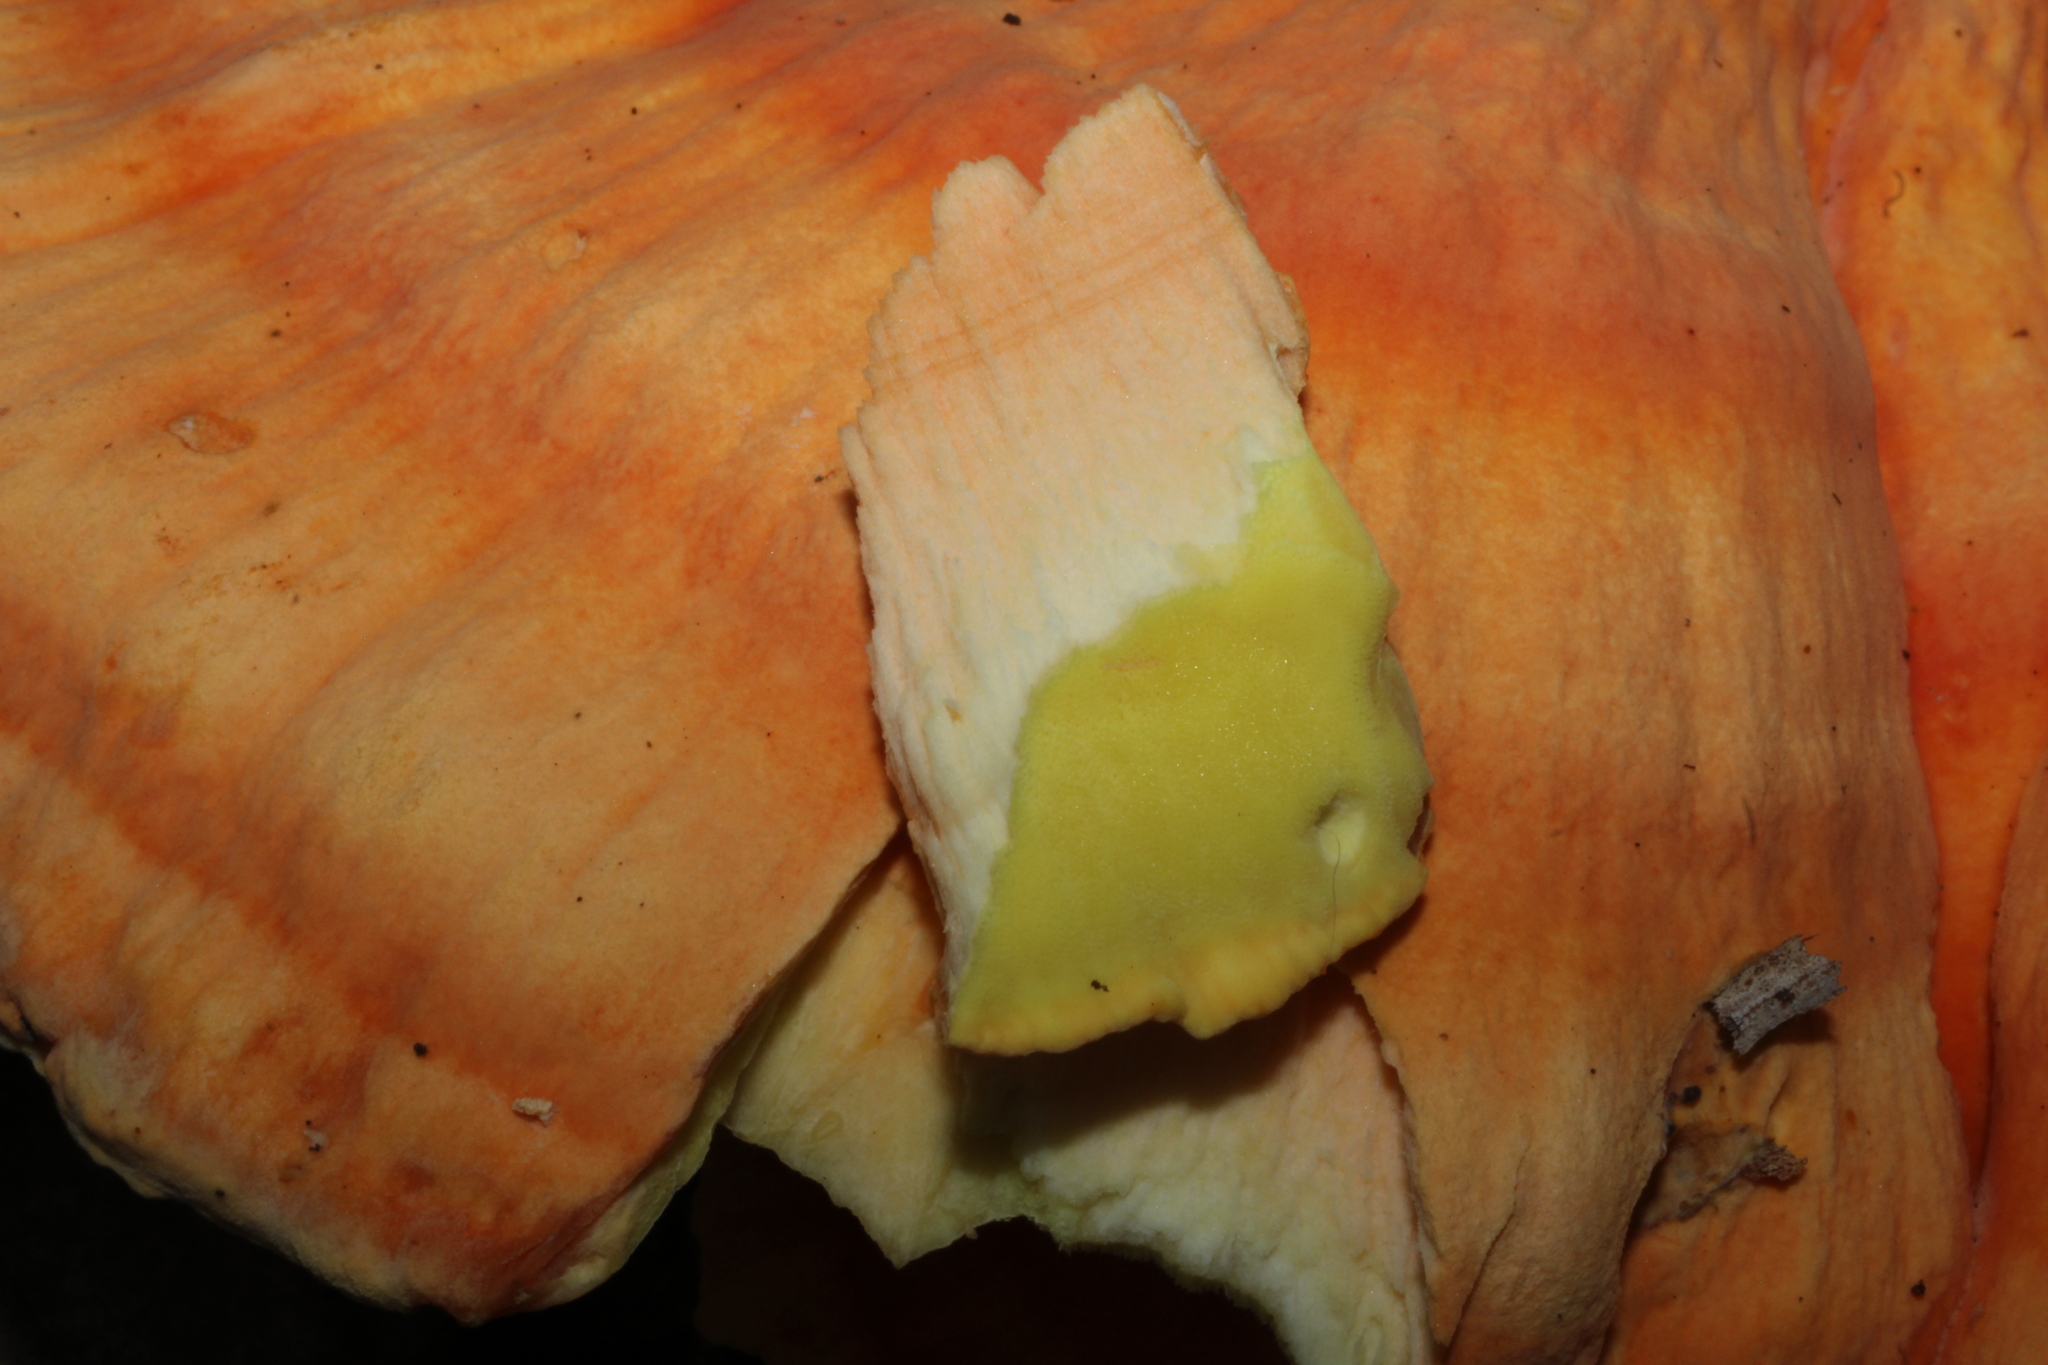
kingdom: Fungi
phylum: Basidiomycota
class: Agaricomycetes
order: Polyporales
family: Laetiporaceae
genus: Laetiporus
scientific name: Laetiporus sulphureus
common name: Chicken of the woods
